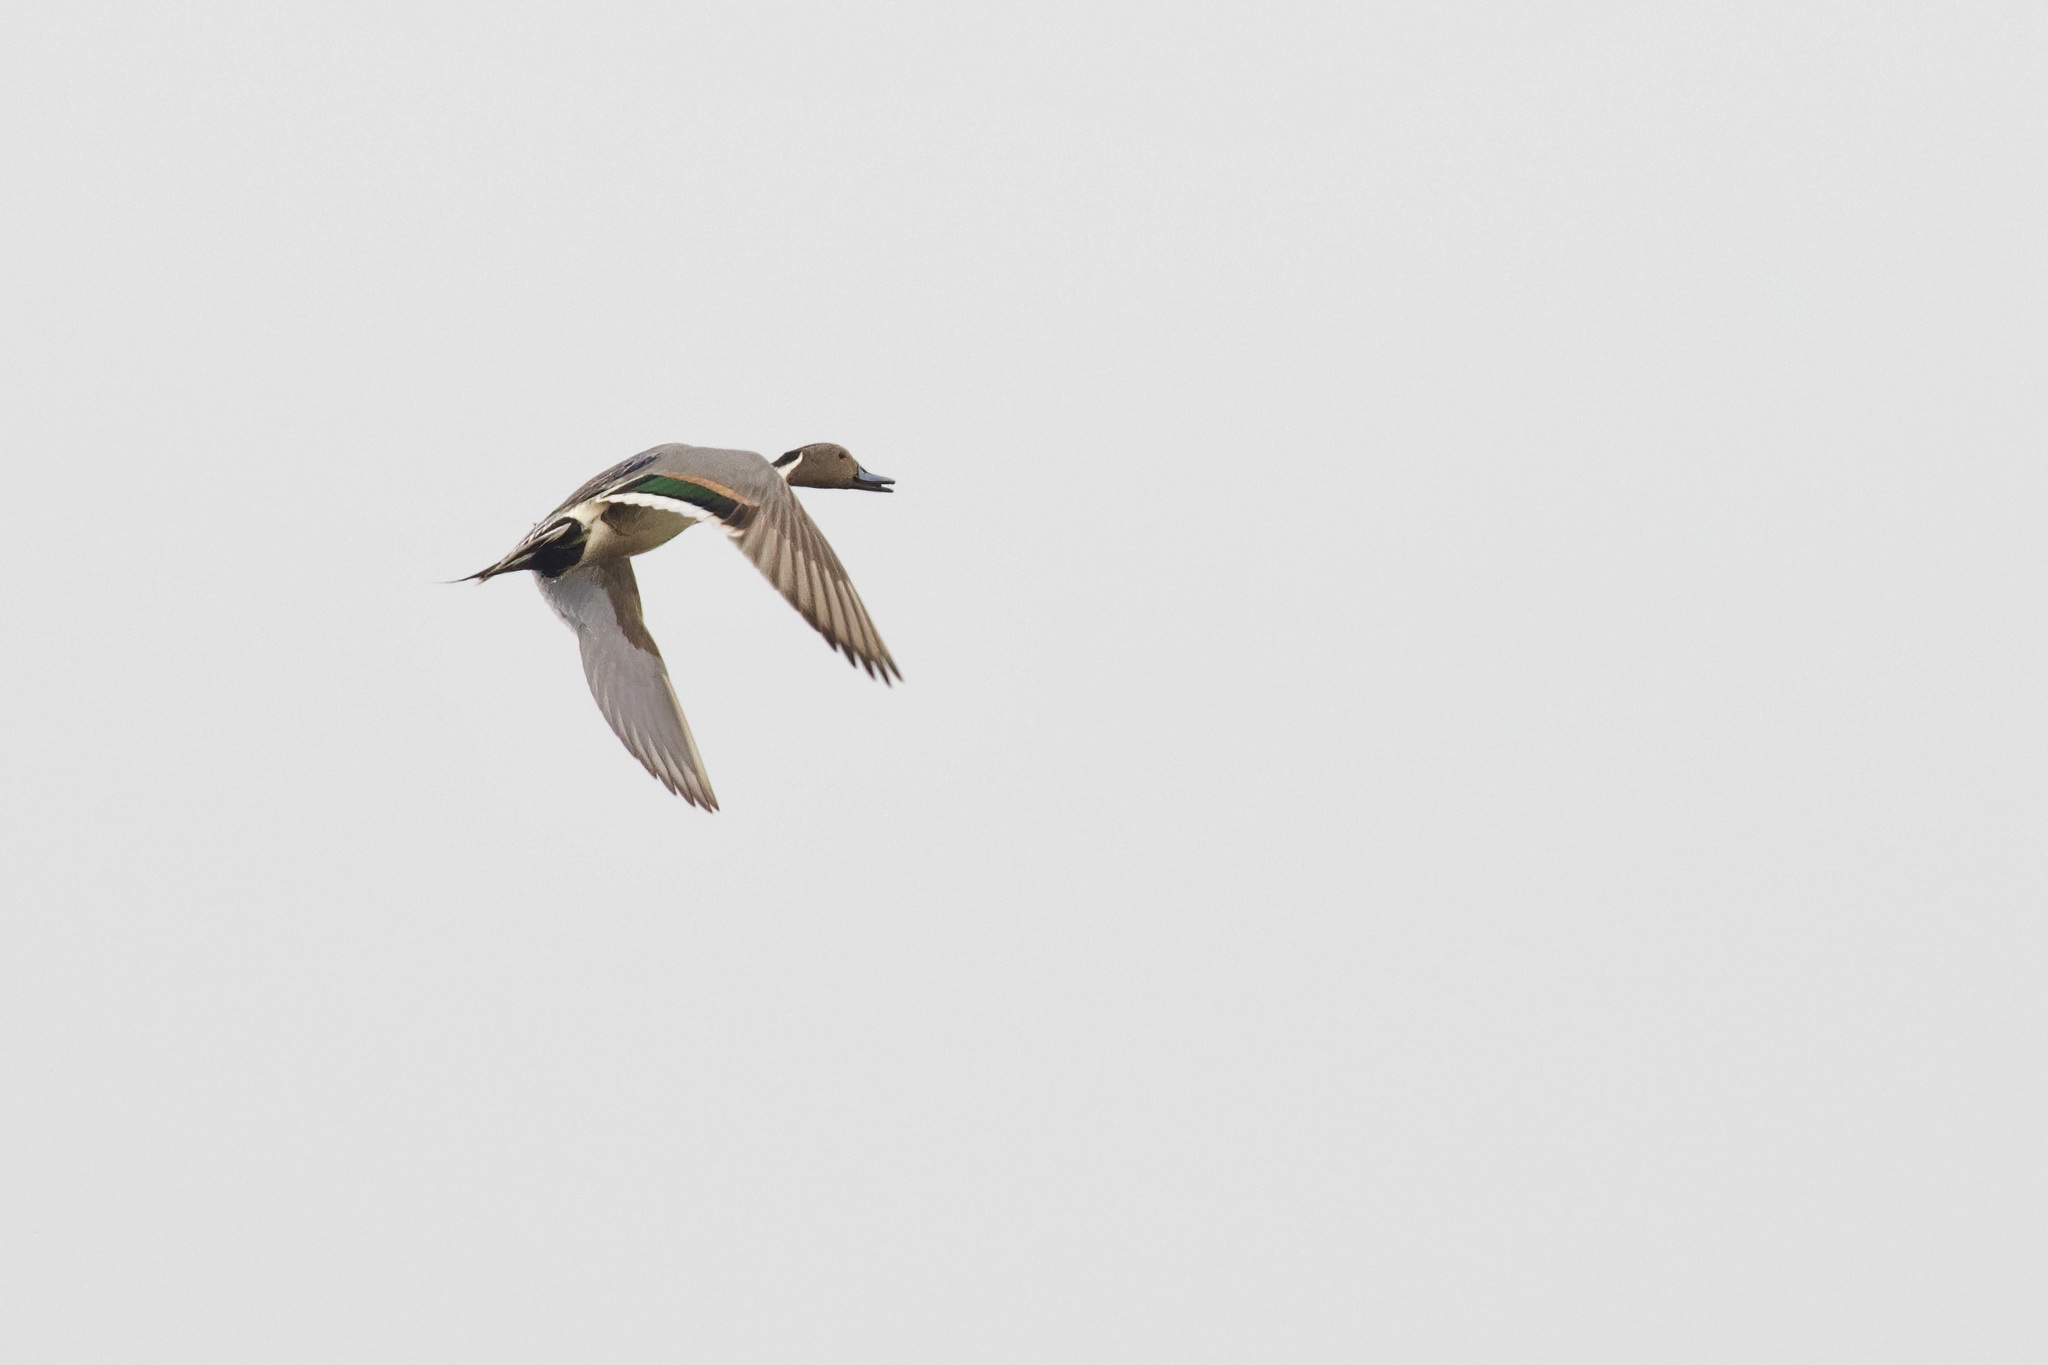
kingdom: Animalia
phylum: Chordata
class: Aves
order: Anseriformes
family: Anatidae
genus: Anas
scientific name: Anas acuta
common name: Northern pintail
